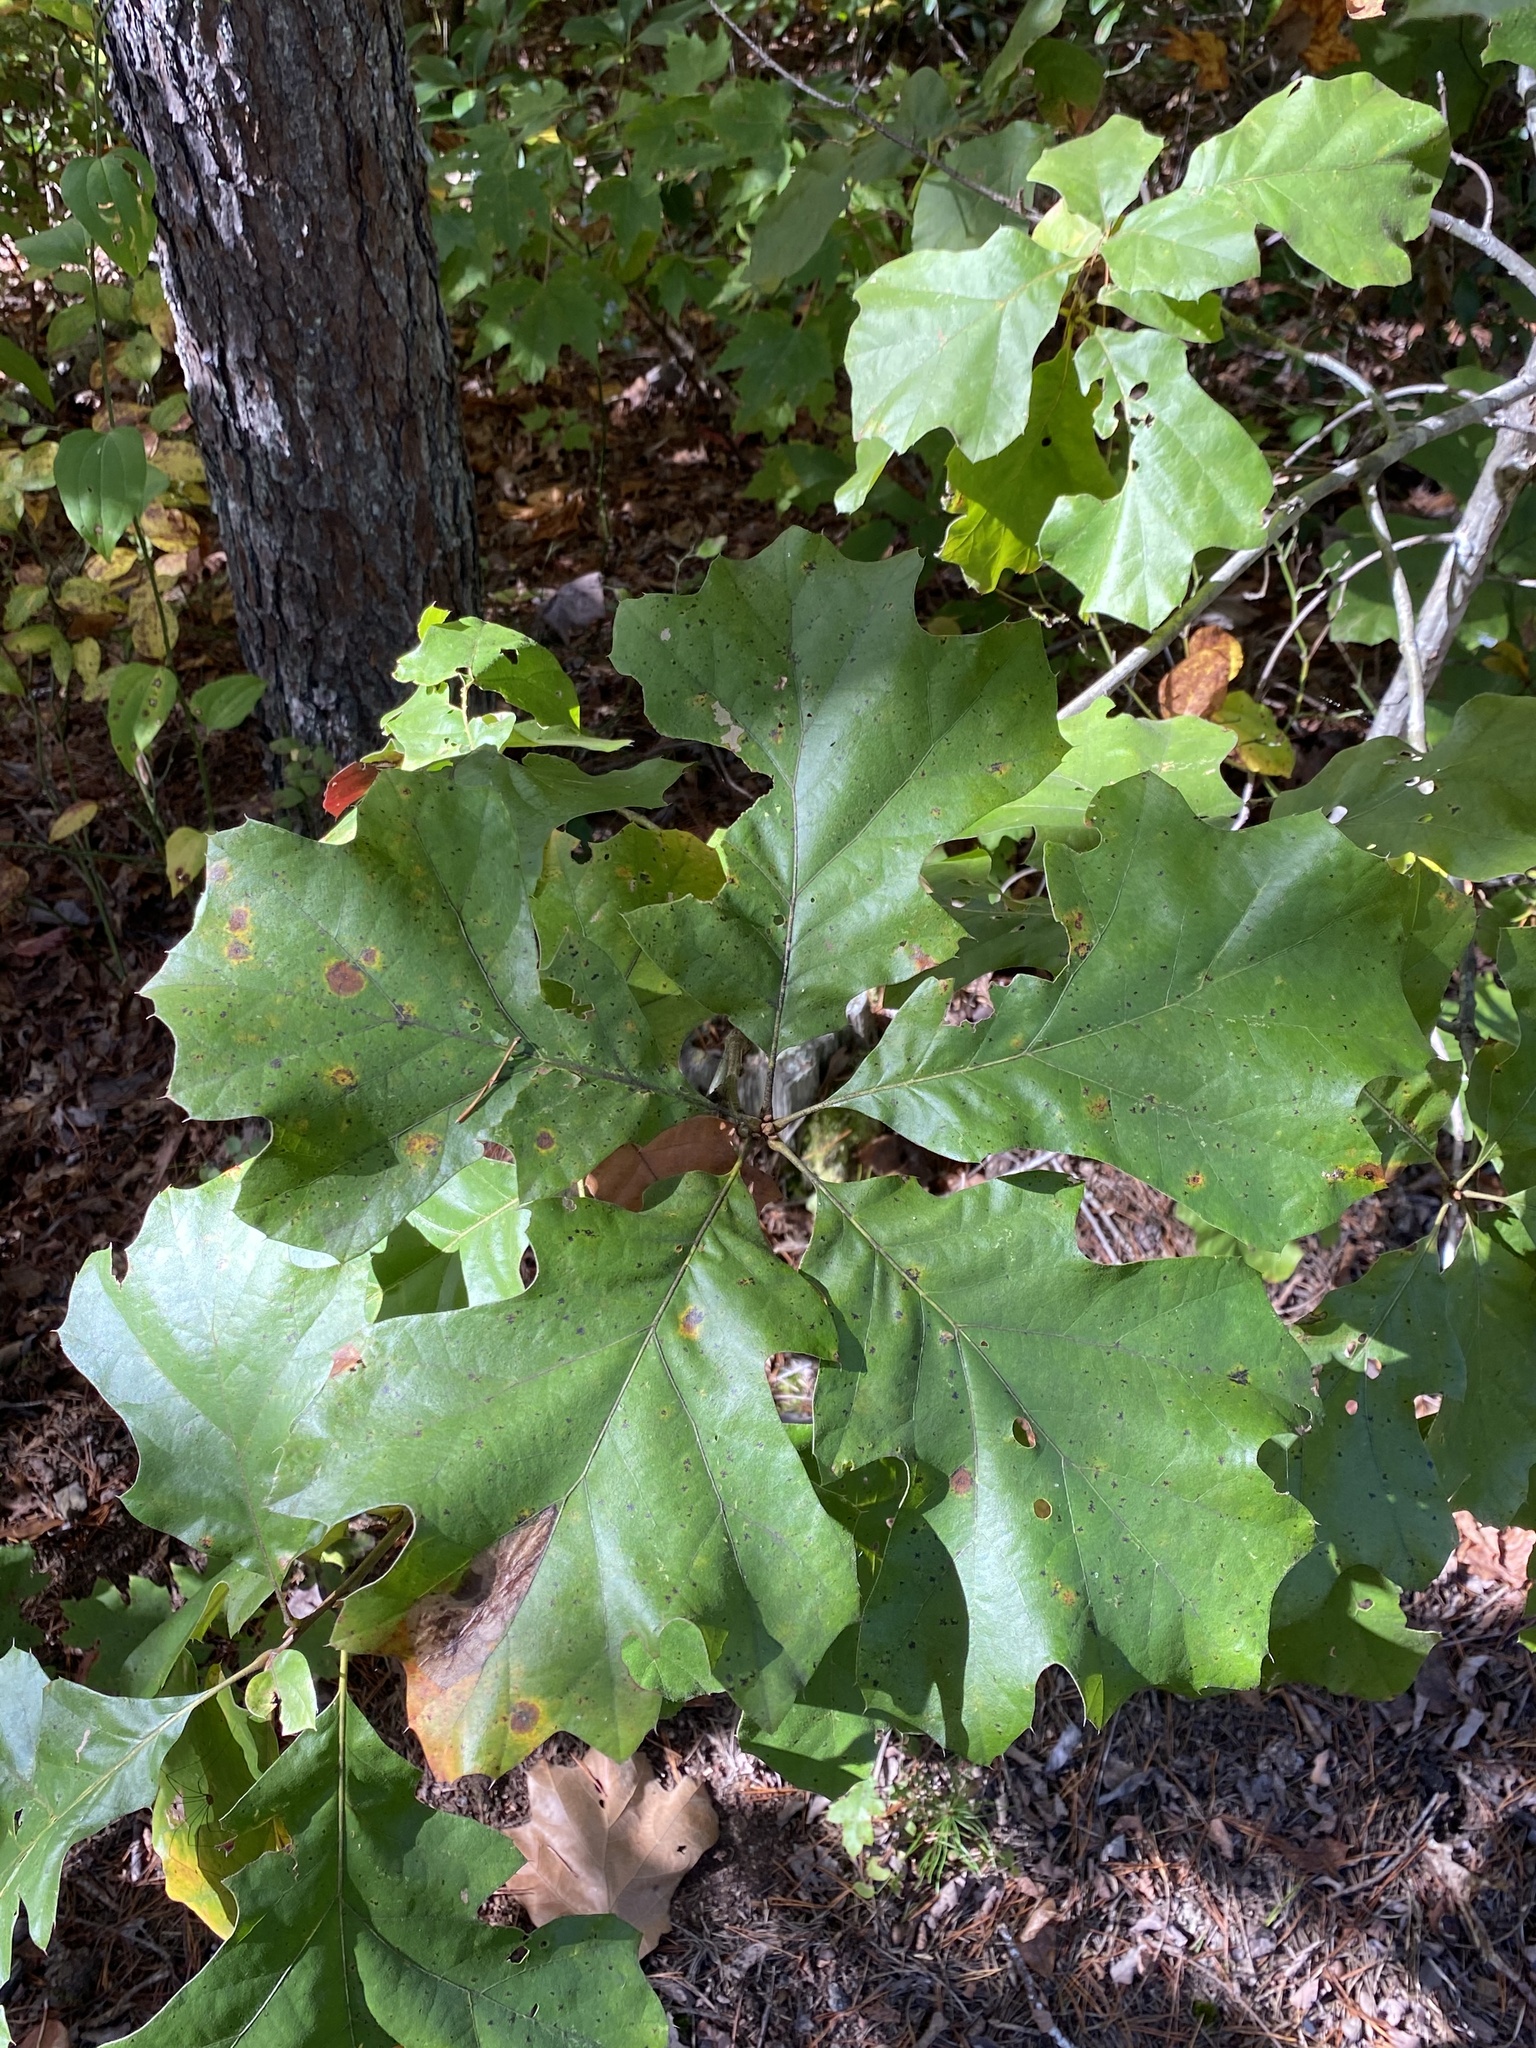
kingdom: Plantae
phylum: Tracheophyta
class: Magnoliopsida
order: Fagales
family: Fagaceae
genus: Quercus
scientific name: Quercus velutina
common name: Black oak
